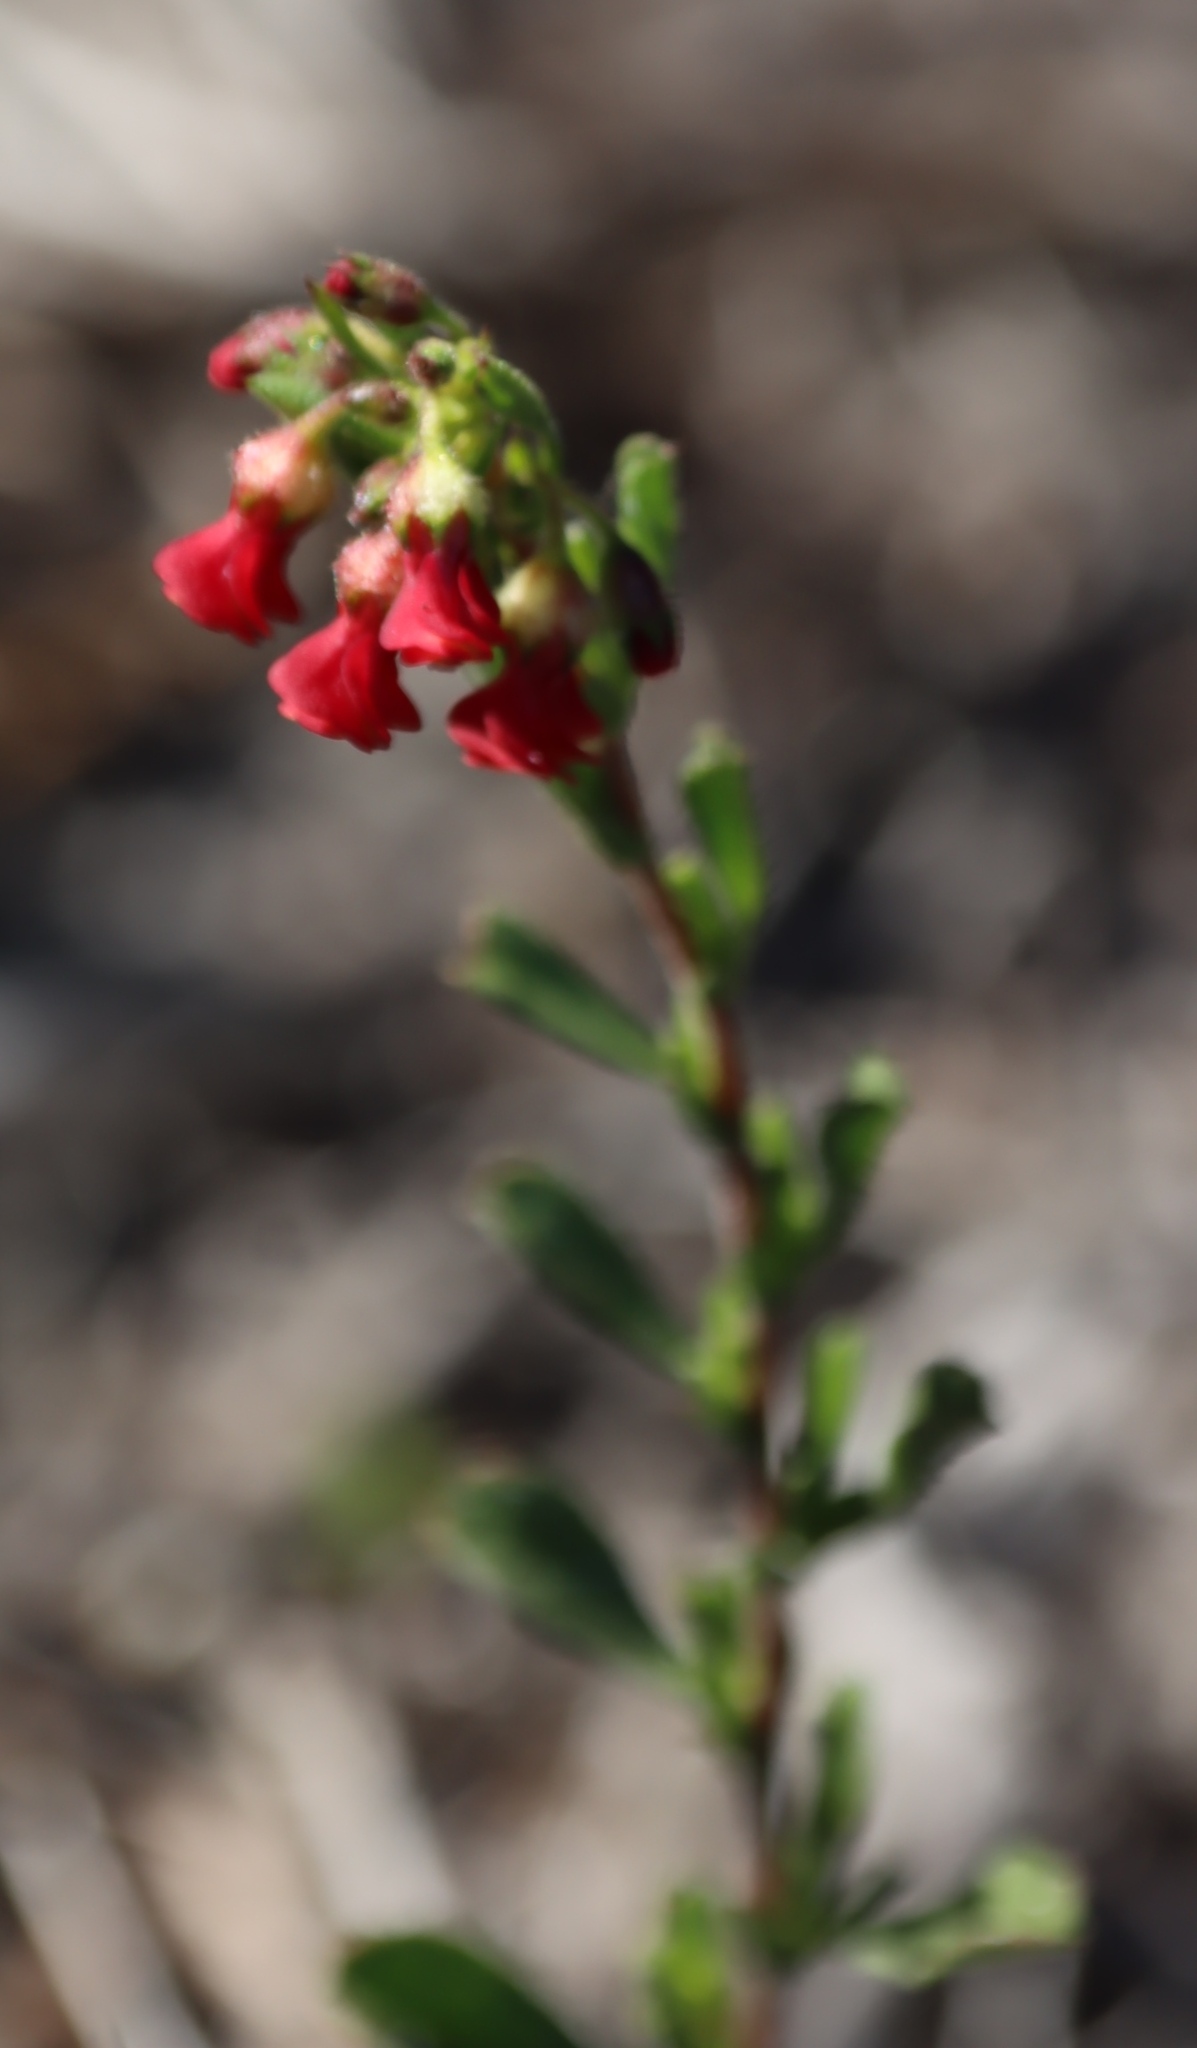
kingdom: Plantae
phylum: Tracheophyta
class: Magnoliopsida
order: Malvales
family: Malvaceae
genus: Hermannia
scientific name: Hermannia joubertiana
